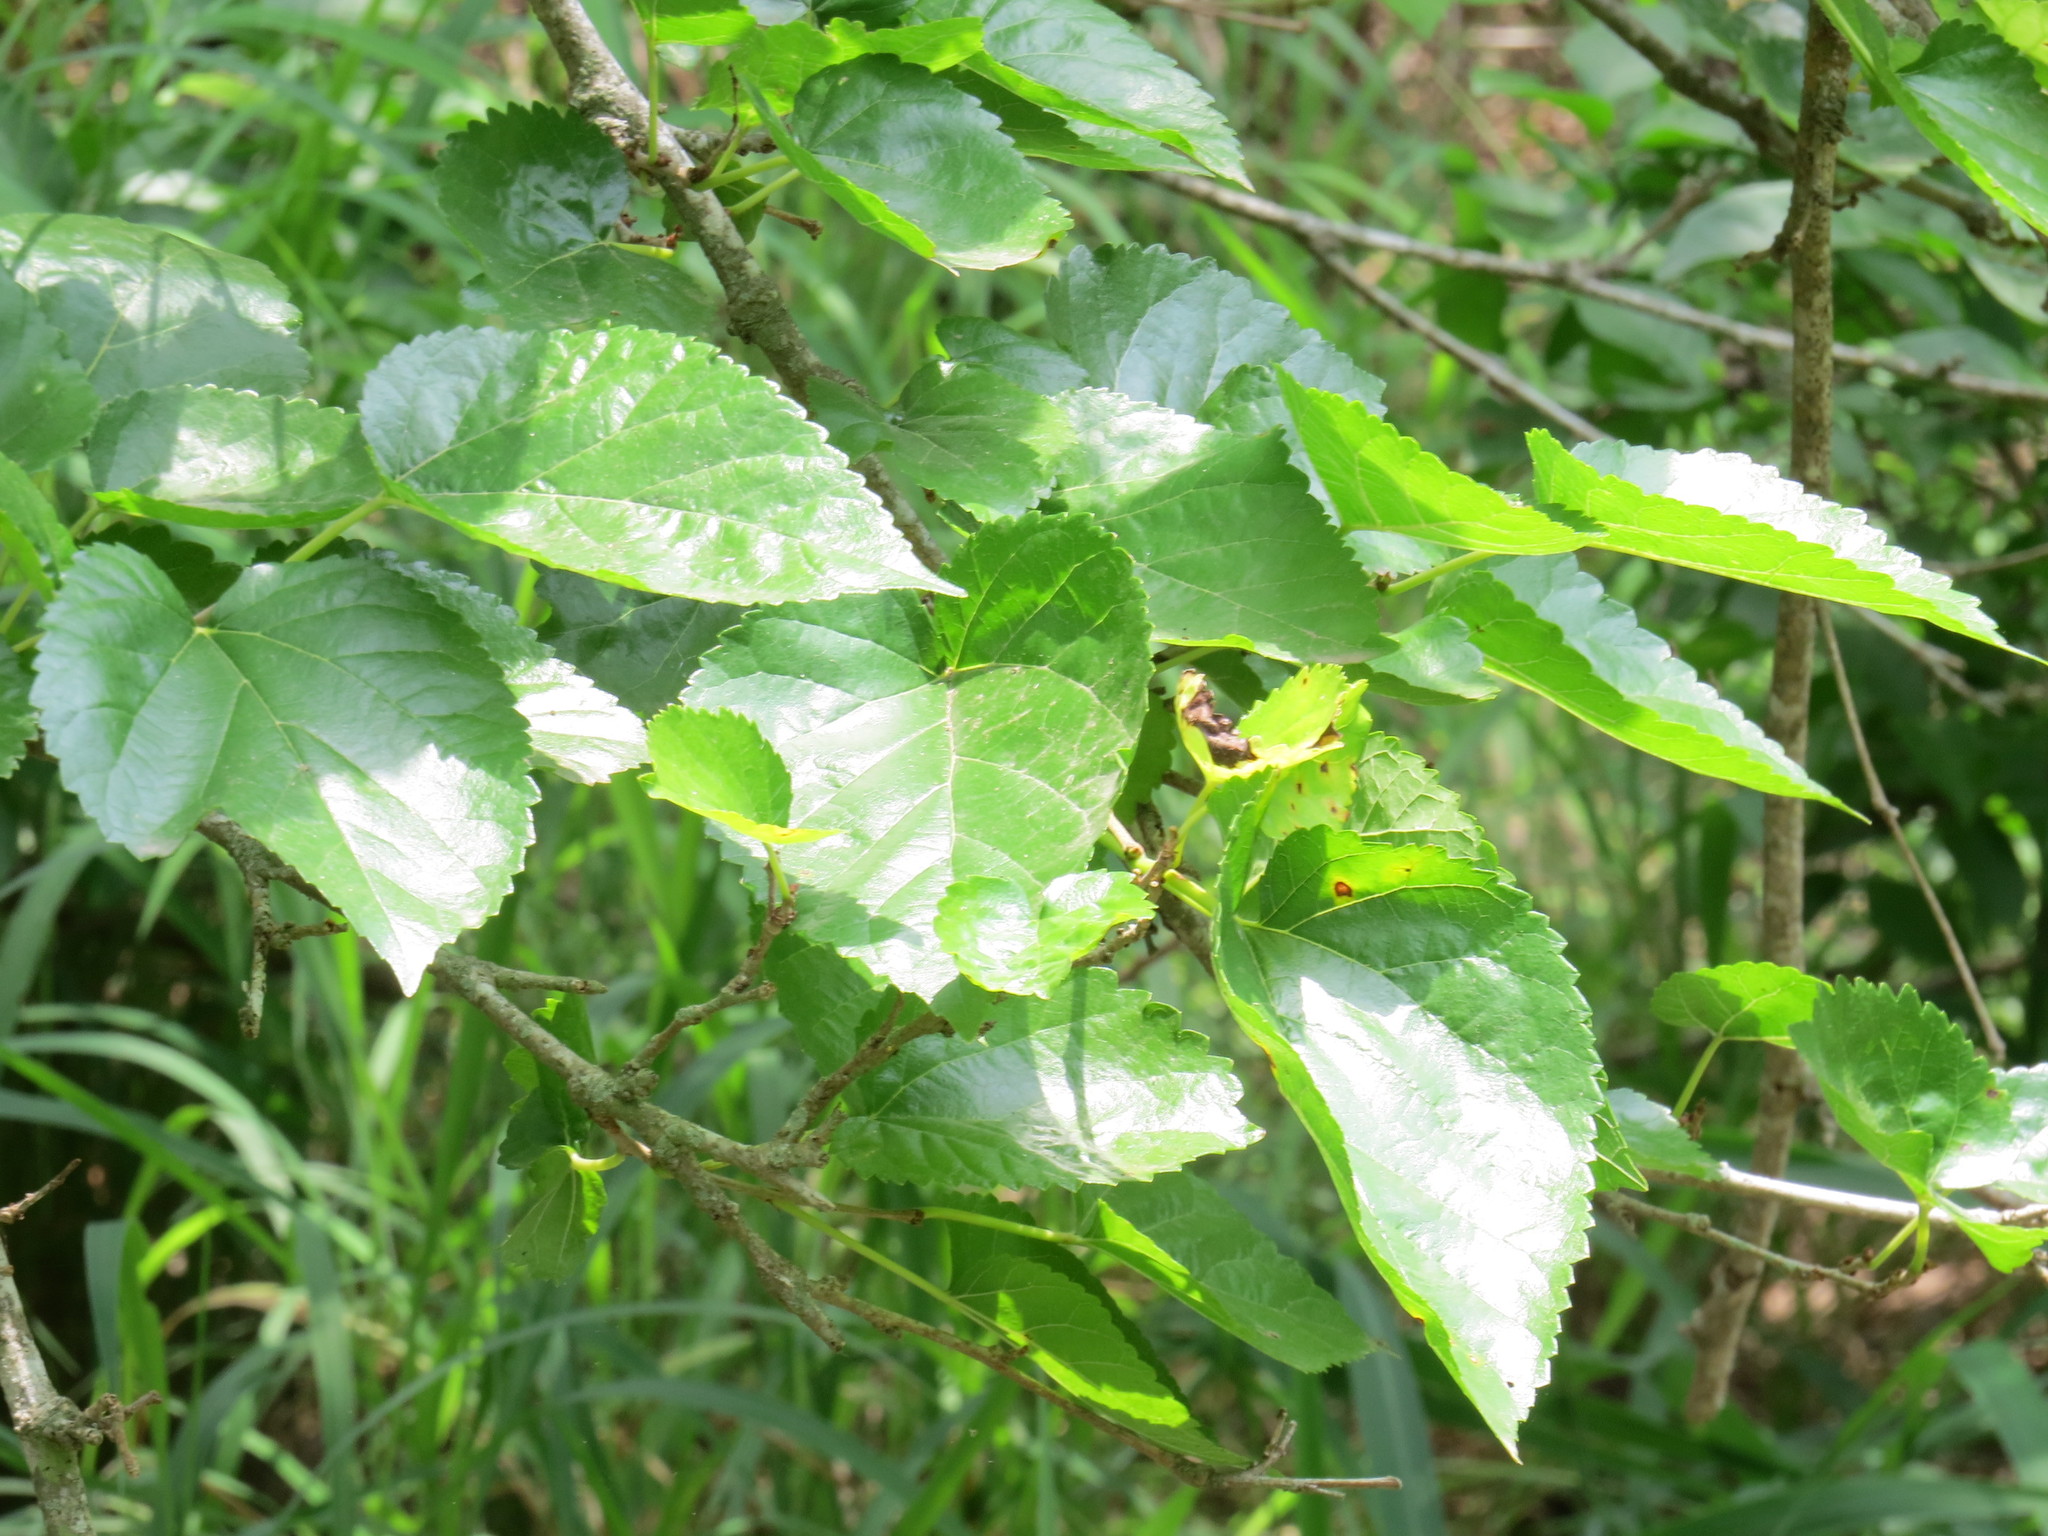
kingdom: Plantae
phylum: Tracheophyta
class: Magnoliopsida
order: Rosales
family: Moraceae
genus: Morus
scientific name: Morus alba
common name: White mulberry
